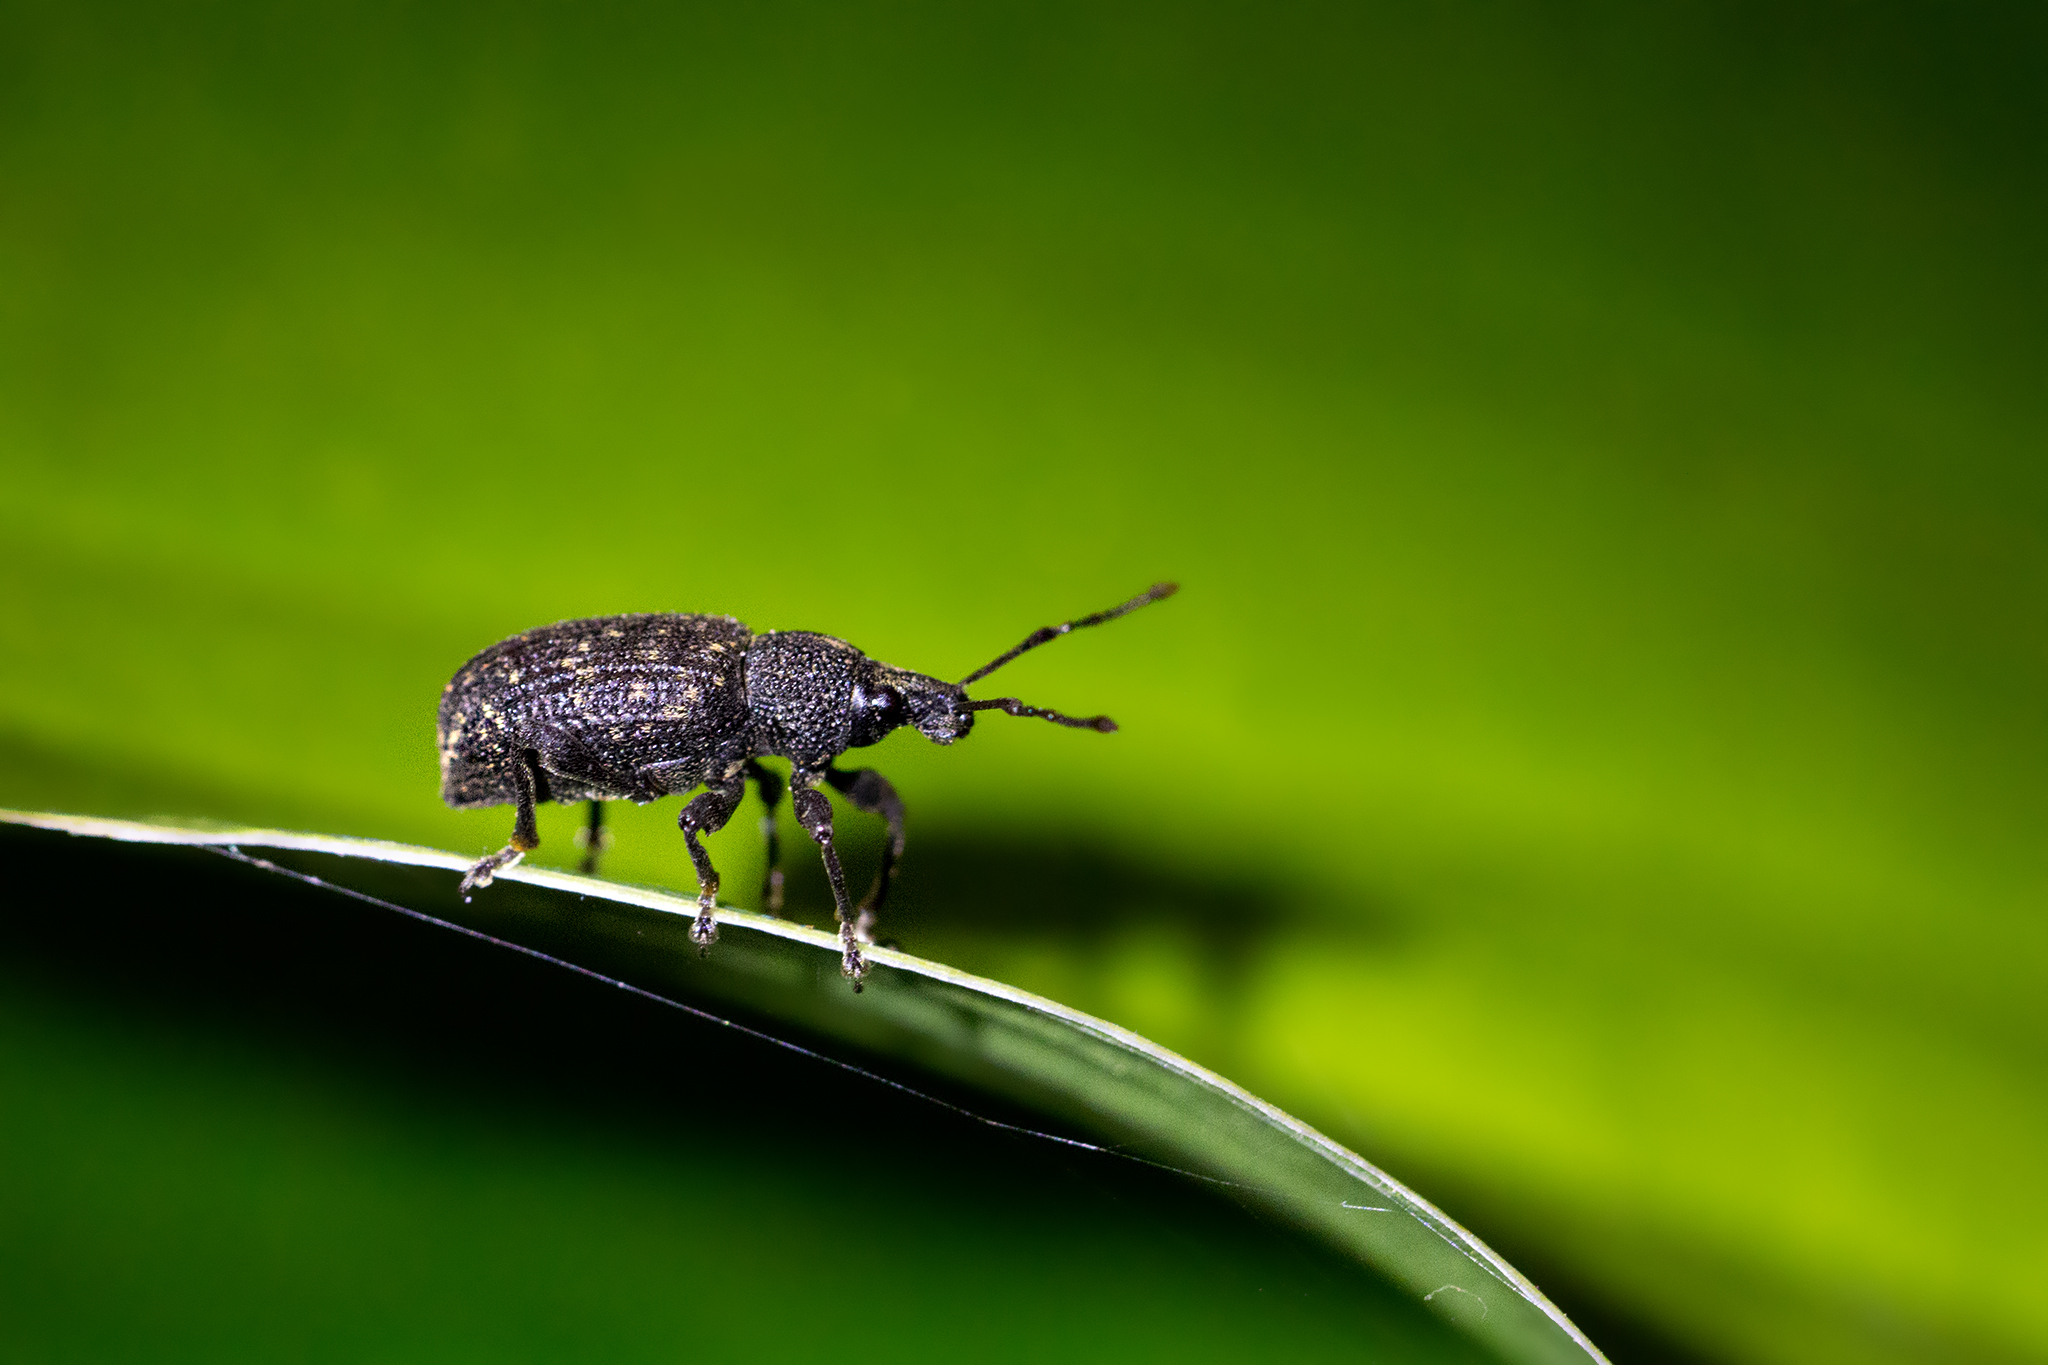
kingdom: Animalia
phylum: Arthropoda
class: Insecta
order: Coleoptera
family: Curculionidae
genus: Otiorhynchus
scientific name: Otiorhynchus sulcatus
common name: Black vine weevil
